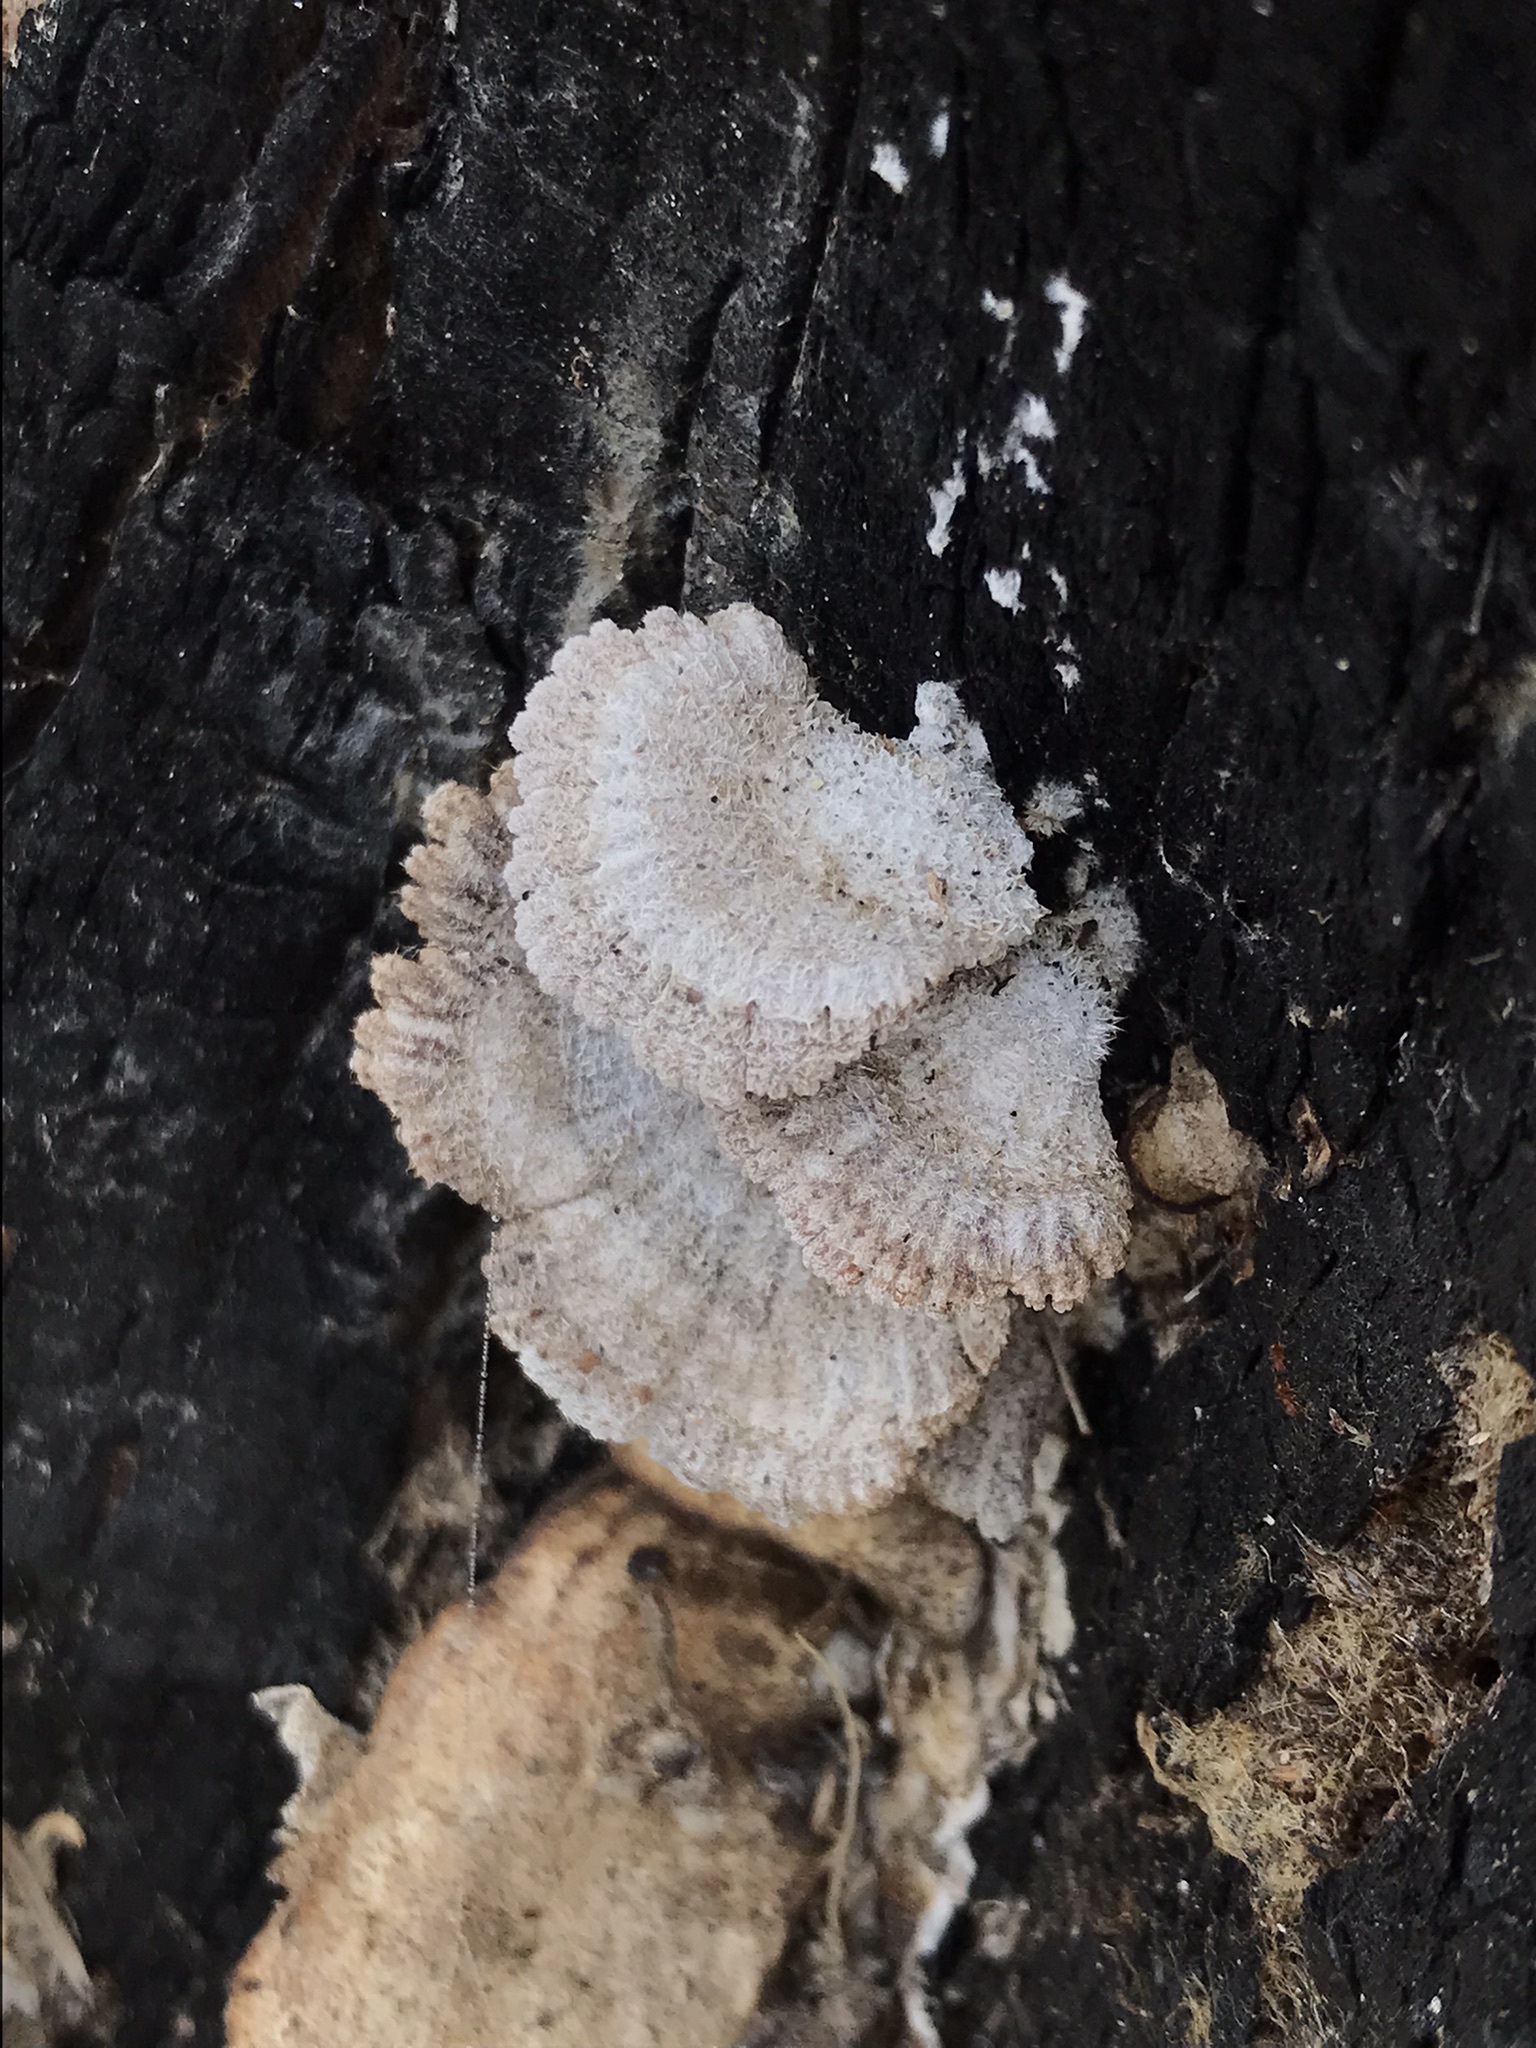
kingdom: Fungi
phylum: Basidiomycota
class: Agaricomycetes
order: Agaricales
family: Schizophyllaceae
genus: Schizophyllum
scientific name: Schizophyllum commune
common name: Common porecrust
